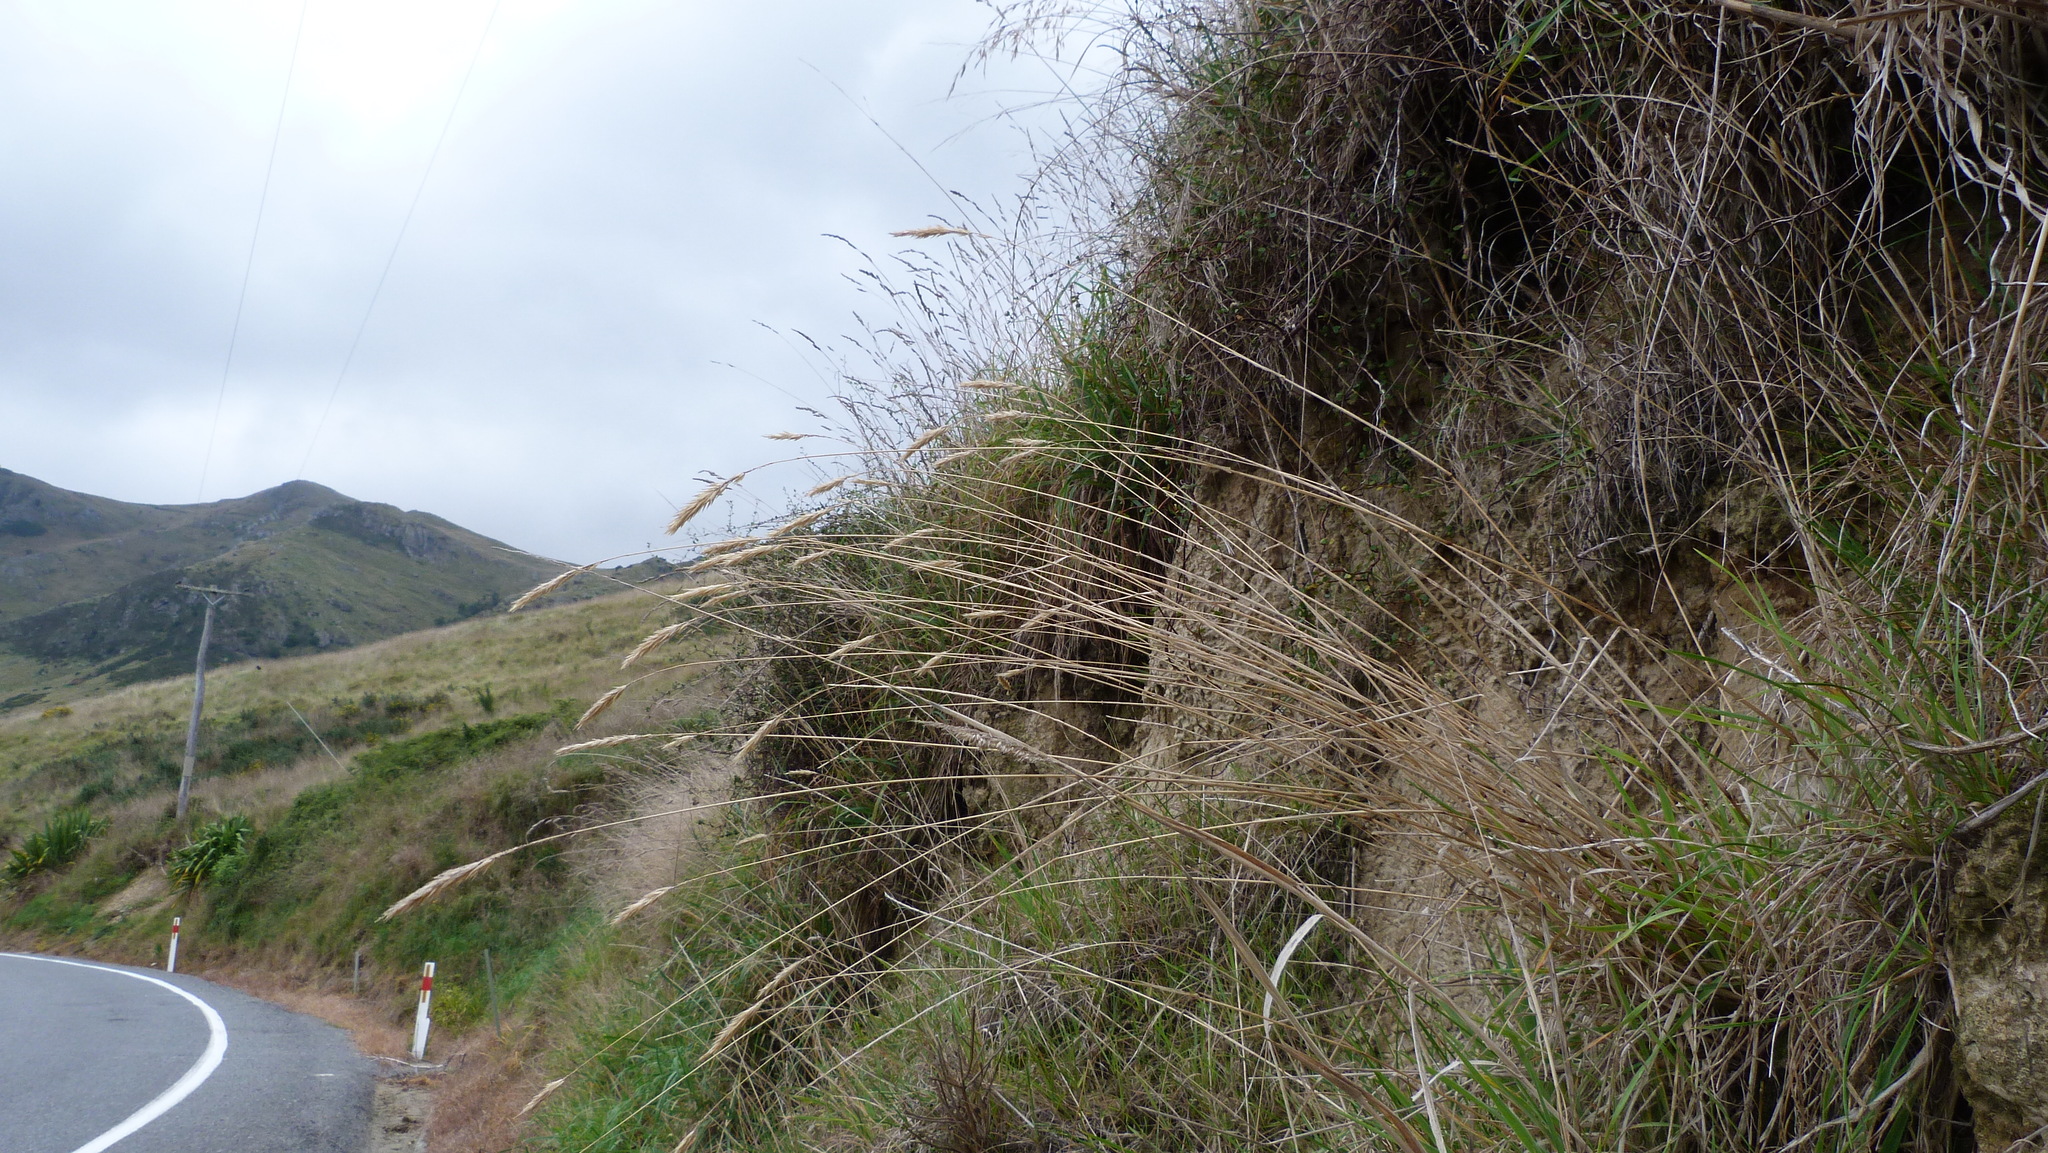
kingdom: Plantae
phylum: Tracheophyta
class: Liliopsida
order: Poales
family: Poaceae
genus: Anthoxanthum
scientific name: Anthoxanthum odoratum
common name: Sweet vernalgrass
